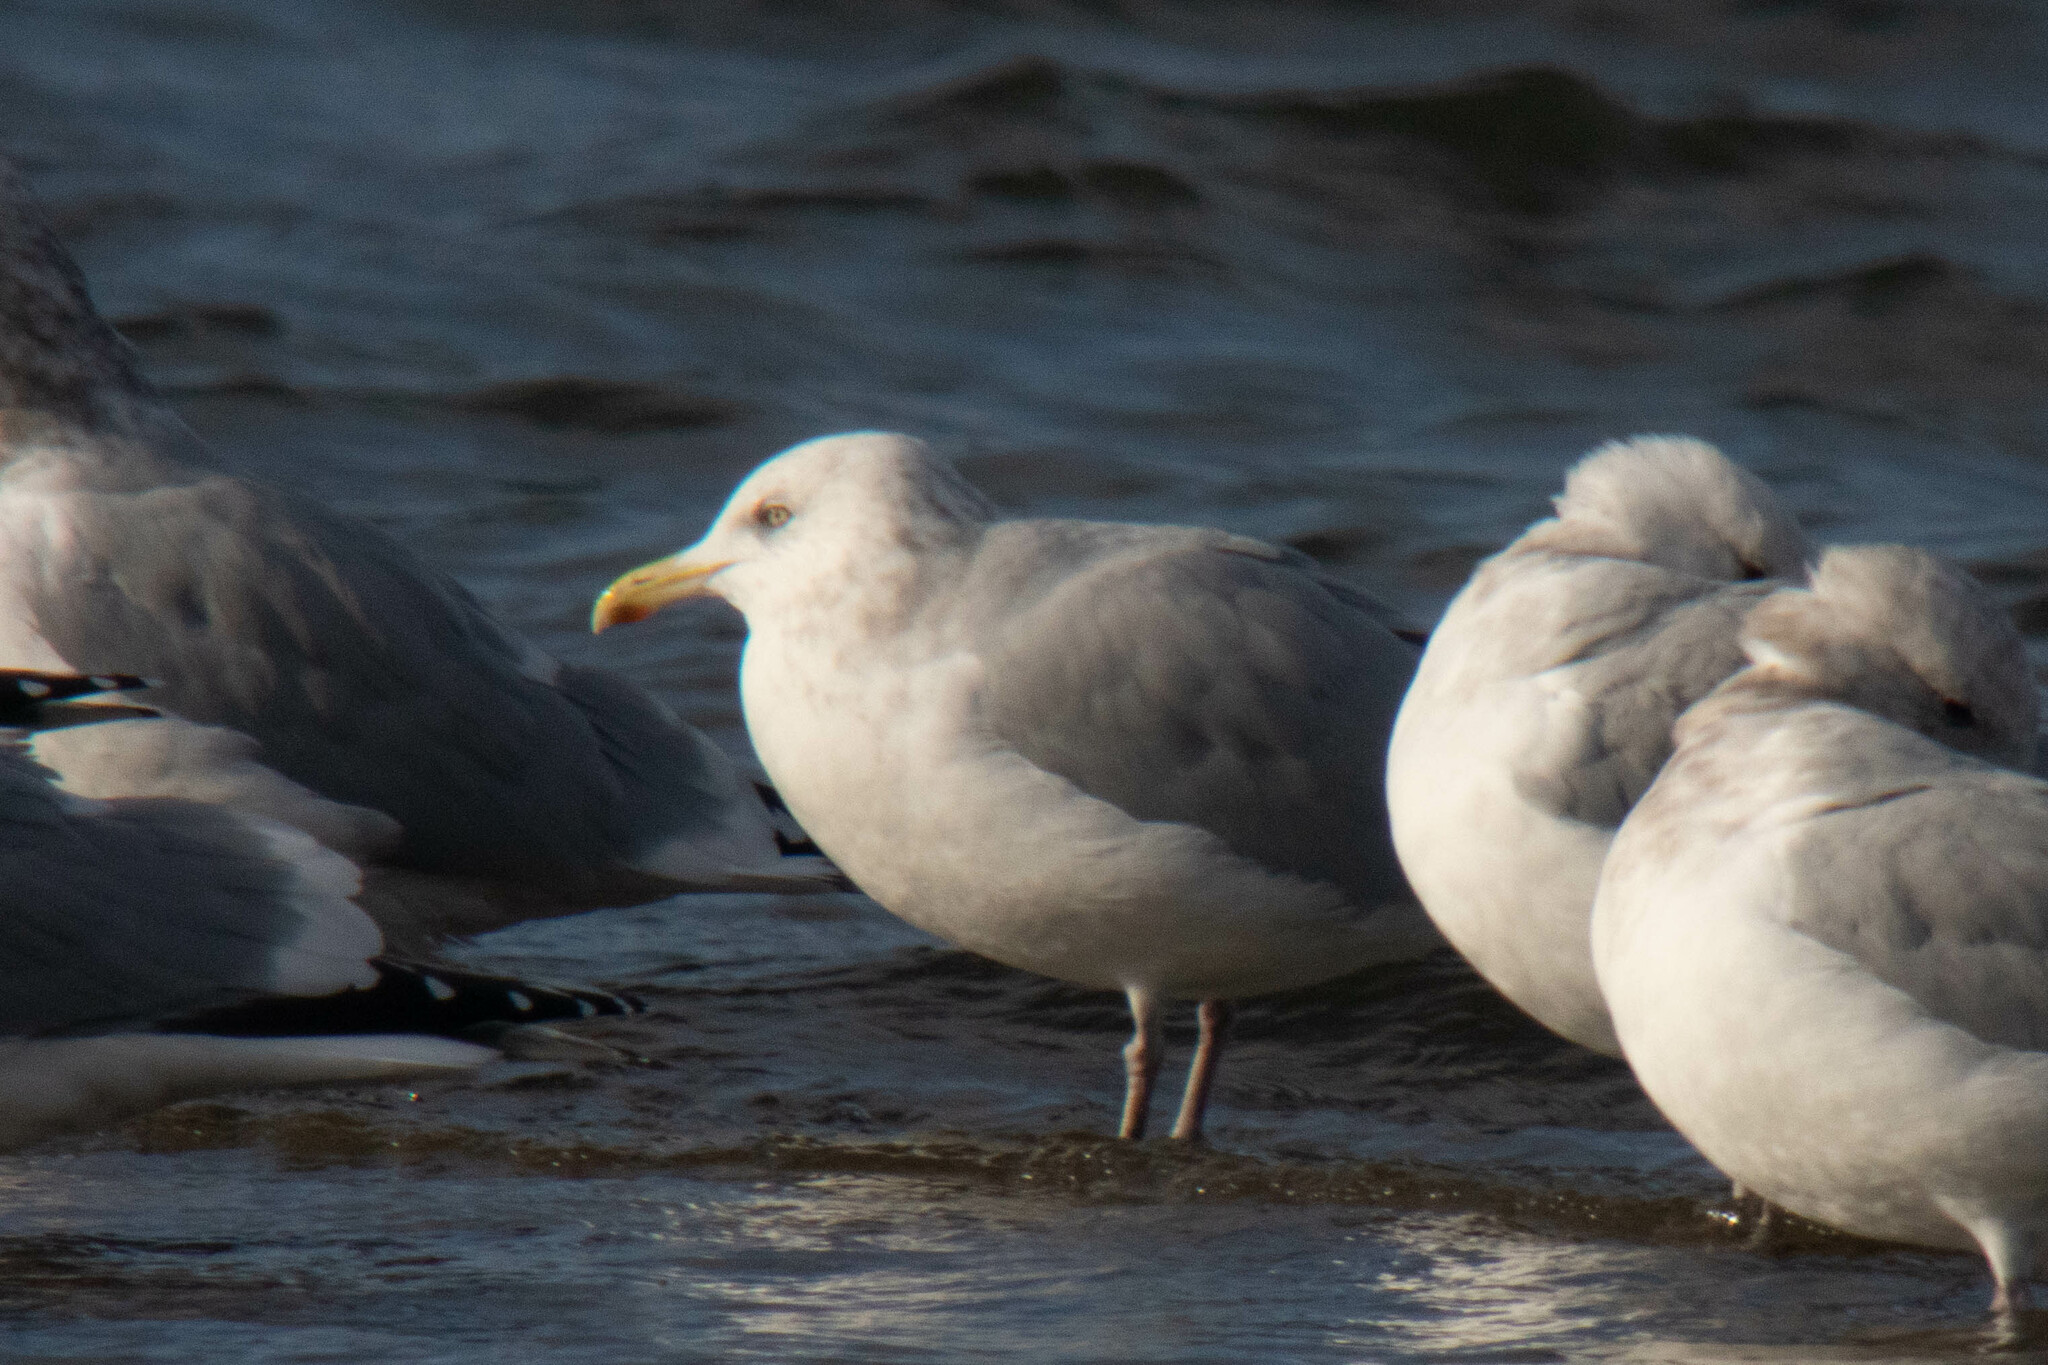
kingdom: Animalia
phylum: Chordata
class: Aves
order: Charadriiformes
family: Laridae
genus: Larus
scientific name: Larus smithsonianus
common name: American herring gull
